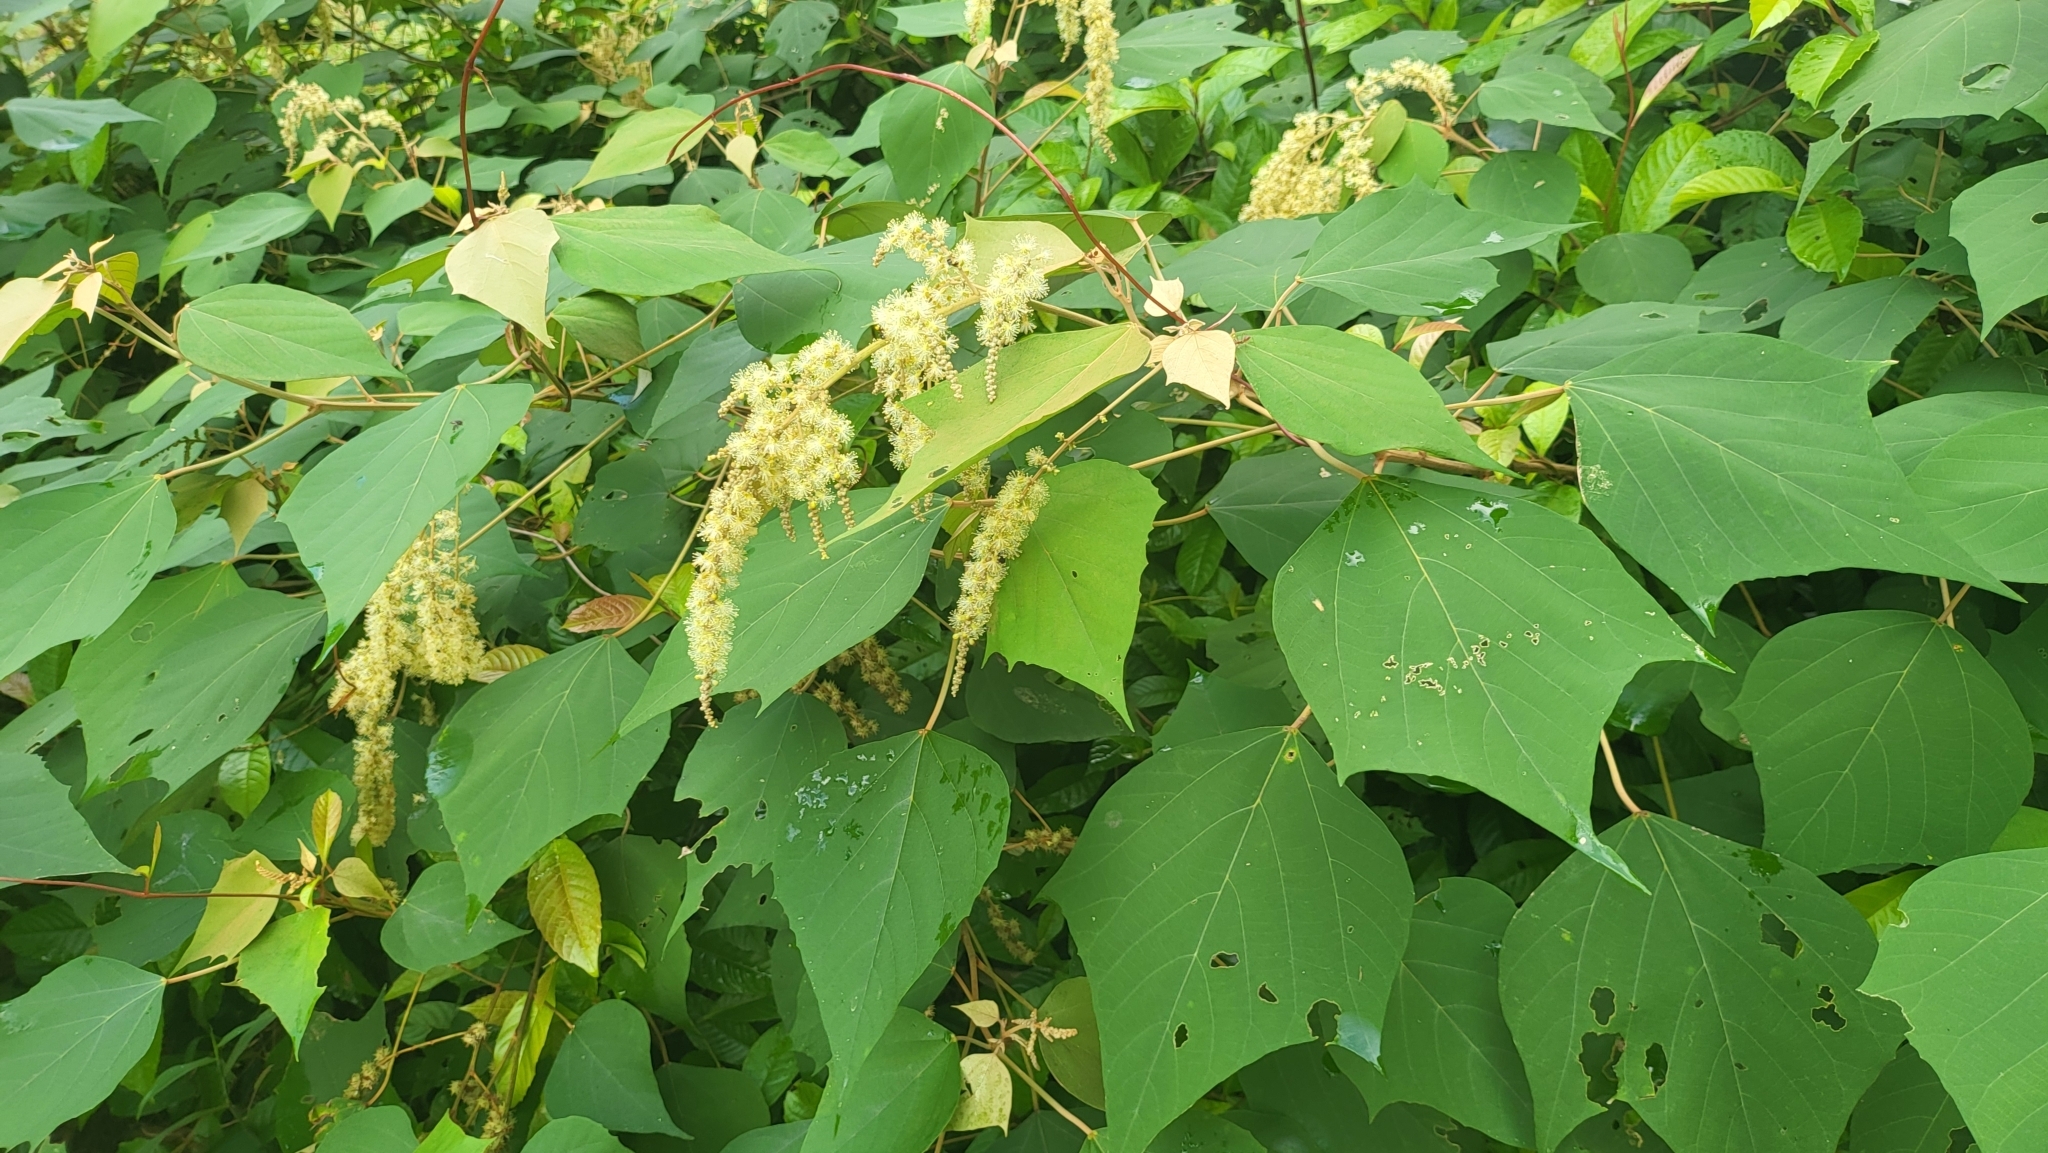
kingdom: Plantae
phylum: Tracheophyta
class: Magnoliopsida
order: Malpighiales
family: Euphorbiaceae
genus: Mallotus
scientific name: Mallotus paniculatus
